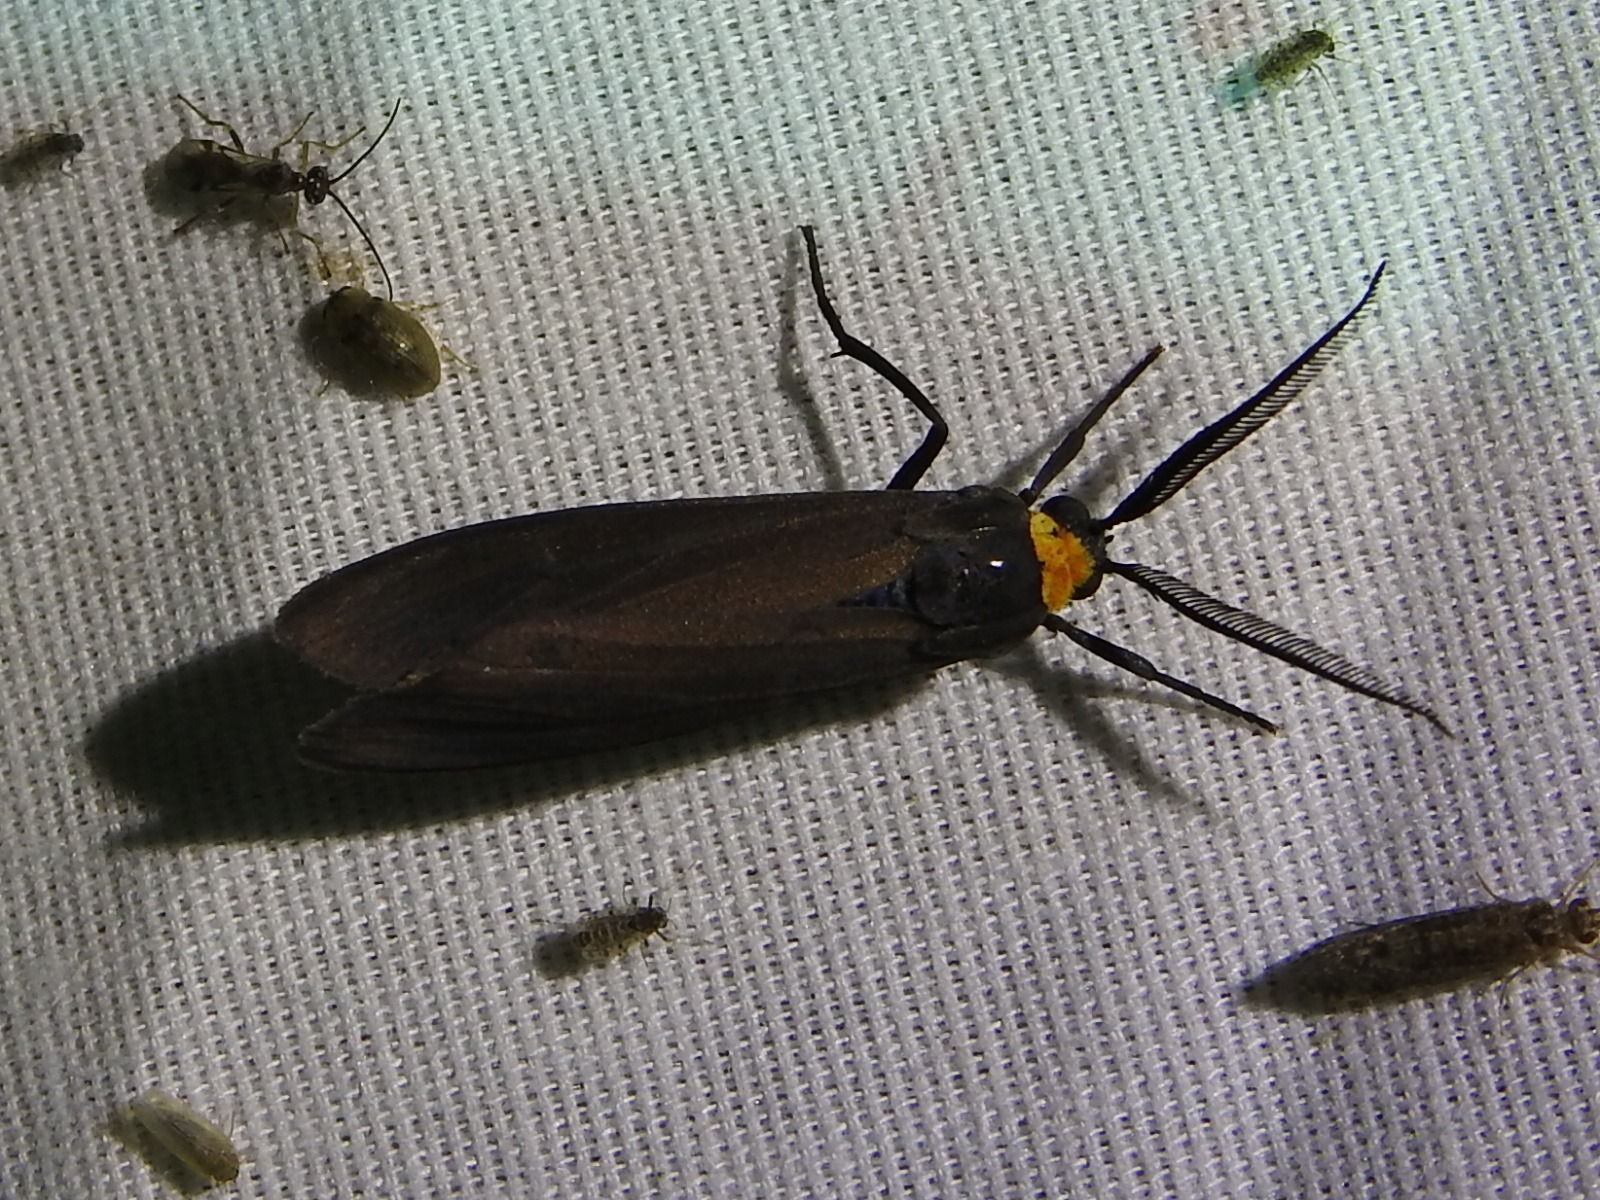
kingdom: Animalia
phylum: Arthropoda
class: Insecta
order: Lepidoptera
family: Erebidae
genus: Cisseps
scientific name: Cisseps fulvicollis
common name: Yellow-collared scape moth
